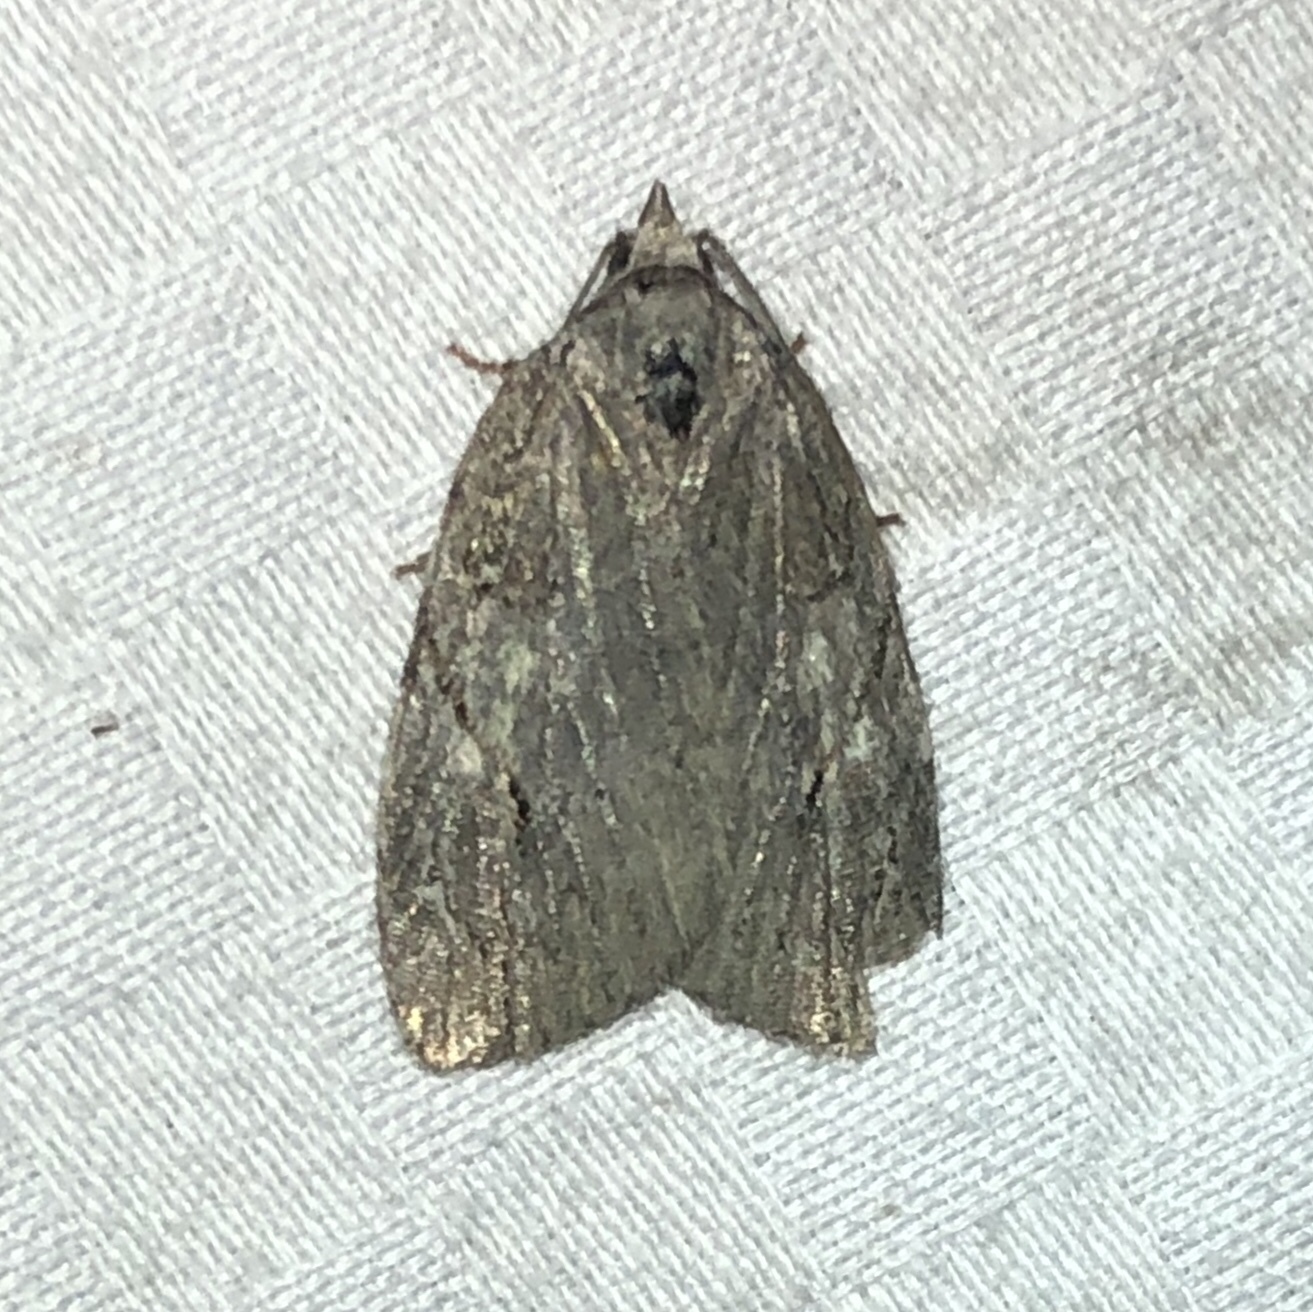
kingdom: Animalia
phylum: Arthropoda
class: Insecta
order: Lepidoptera
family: Noctuidae
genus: Balsa
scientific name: Balsa labecula
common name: White-blotched balsa moth
